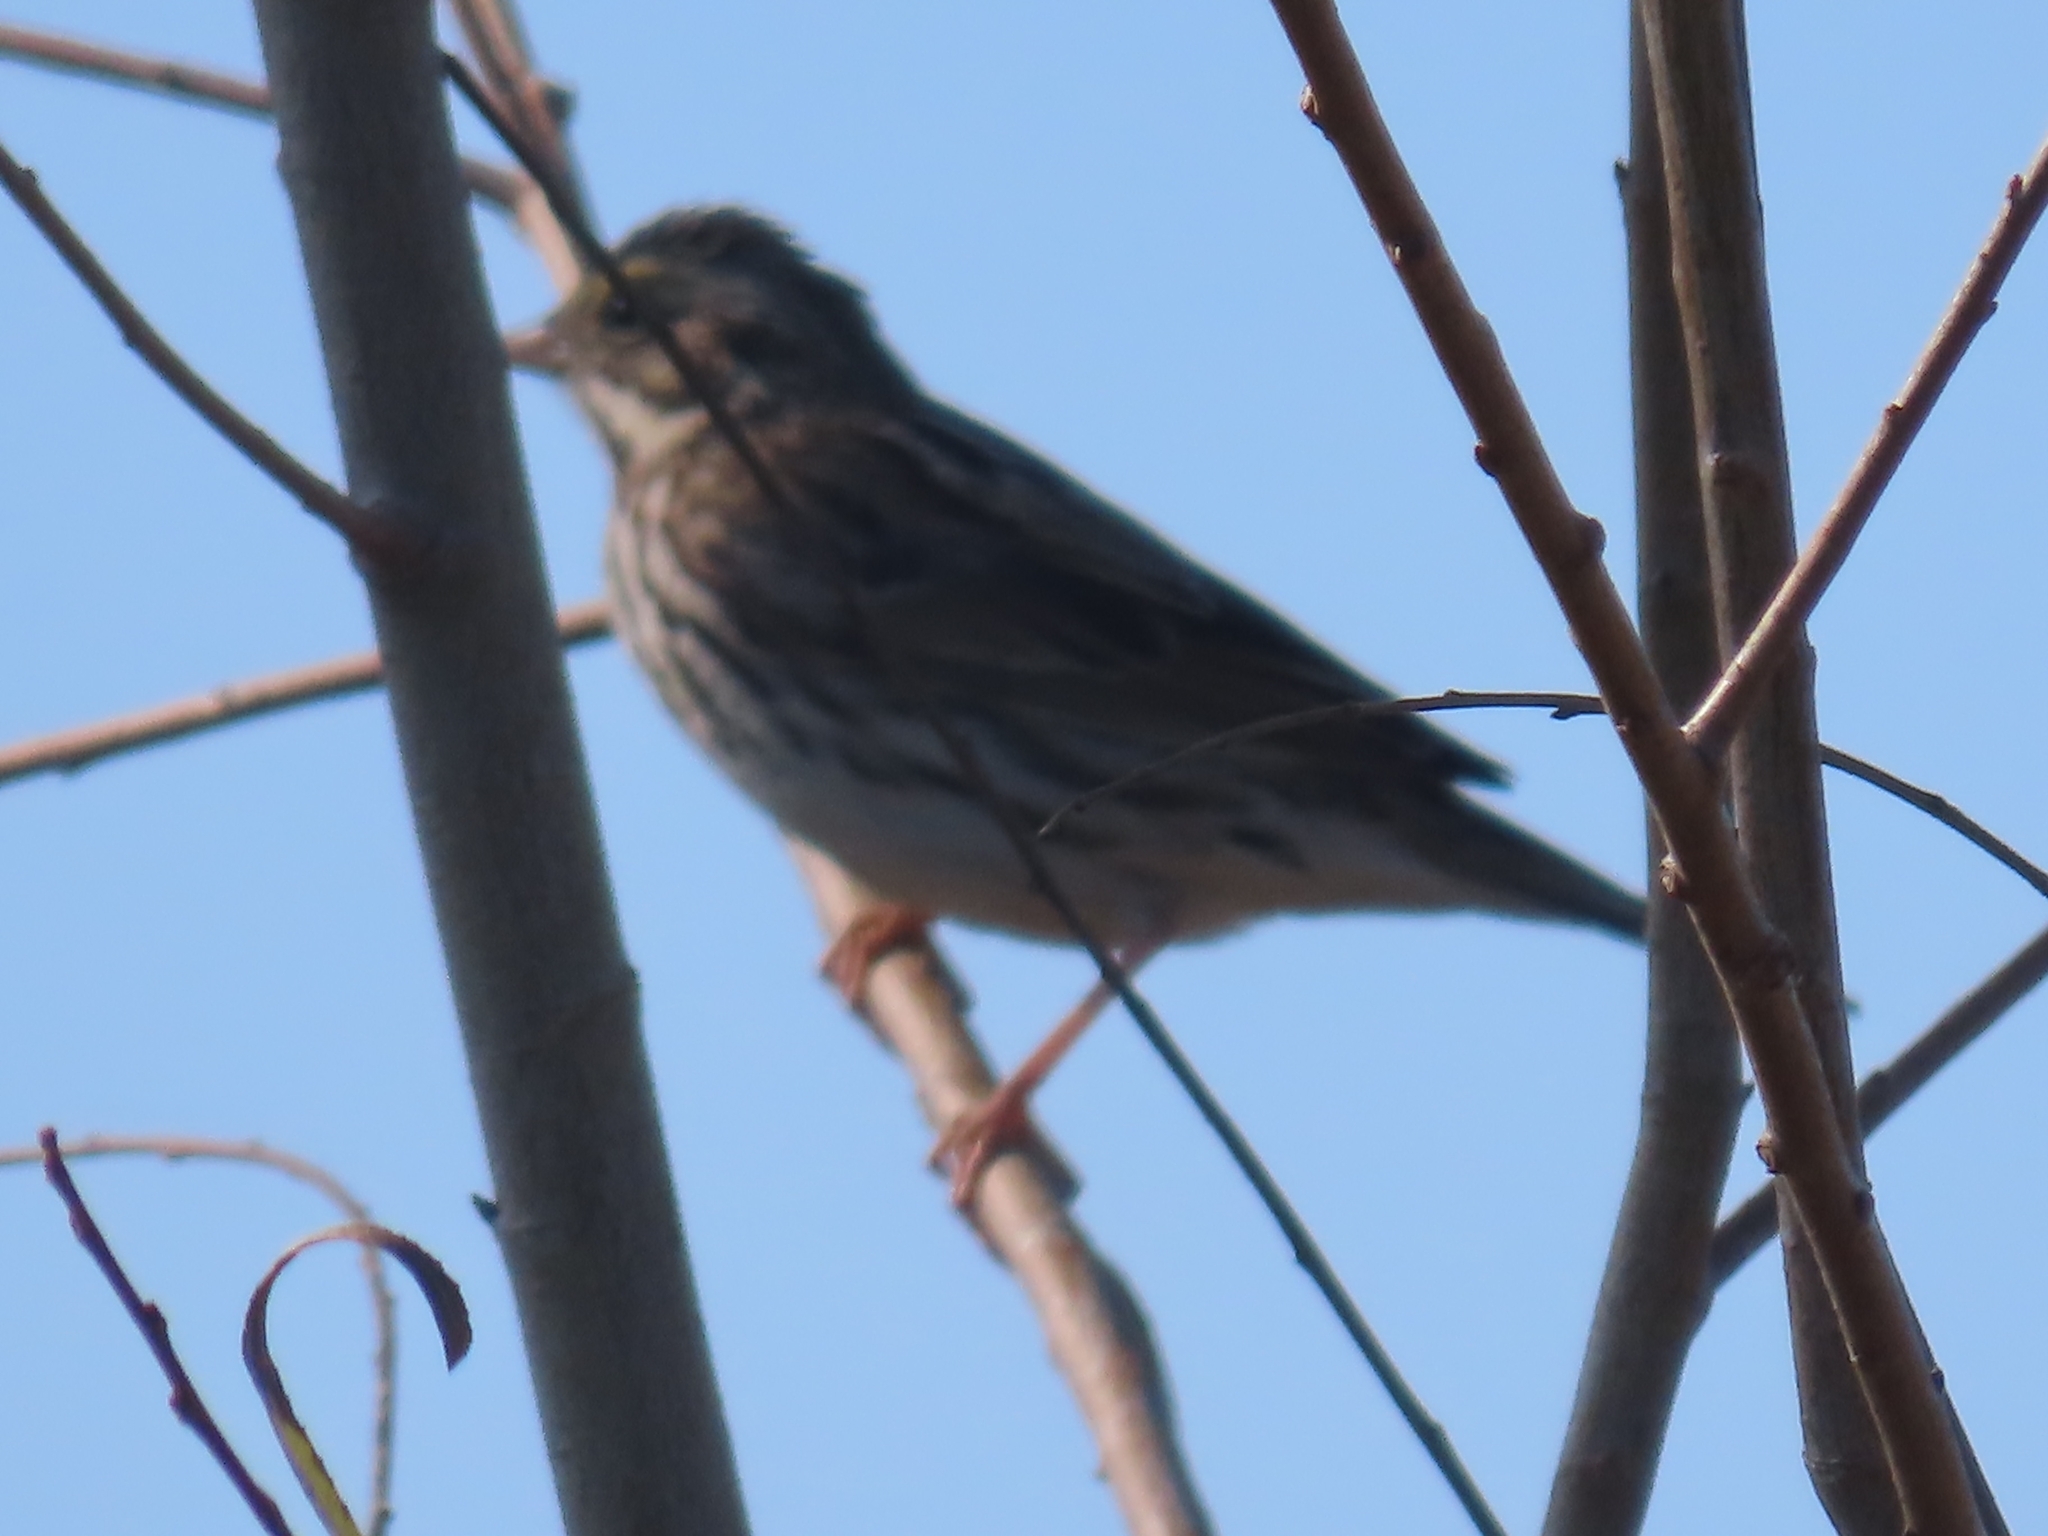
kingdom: Animalia
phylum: Chordata
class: Aves
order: Passeriformes
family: Passerellidae
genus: Passerculus
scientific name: Passerculus sandwichensis
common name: Savannah sparrow
